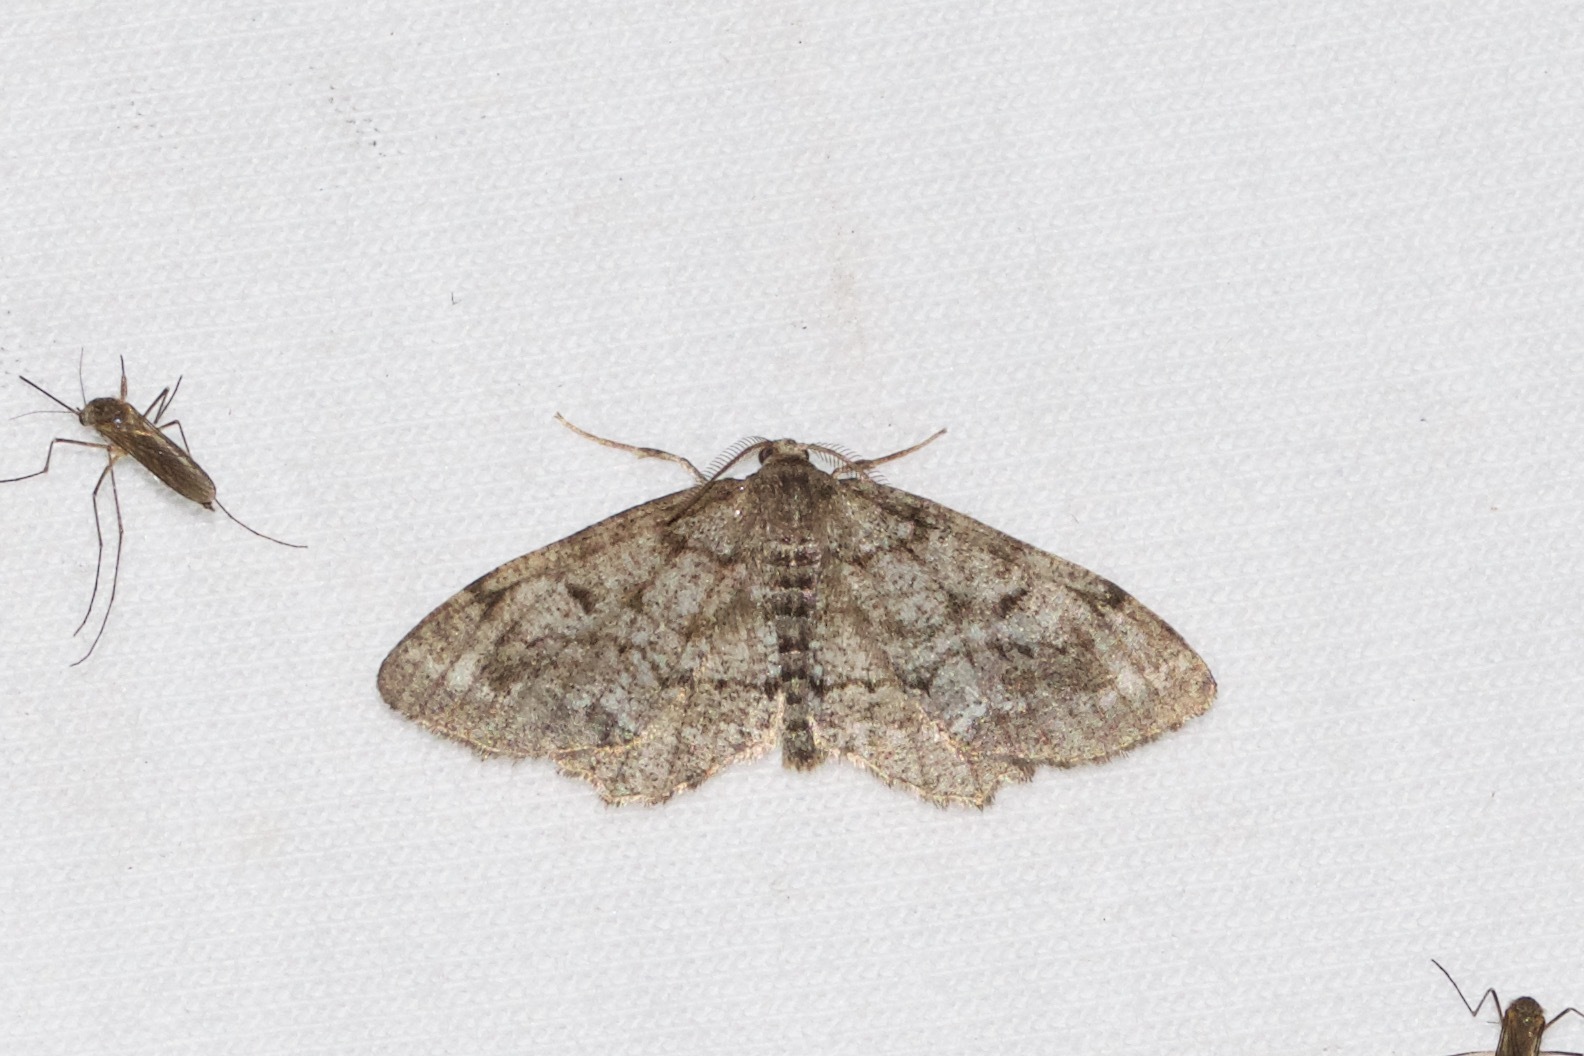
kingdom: Animalia
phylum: Arthropoda
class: Insecta
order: Lepidoptera
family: Geometridae
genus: Hypagyrtis
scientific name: Hypagyrtis piniata
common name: Pine measuringworm
